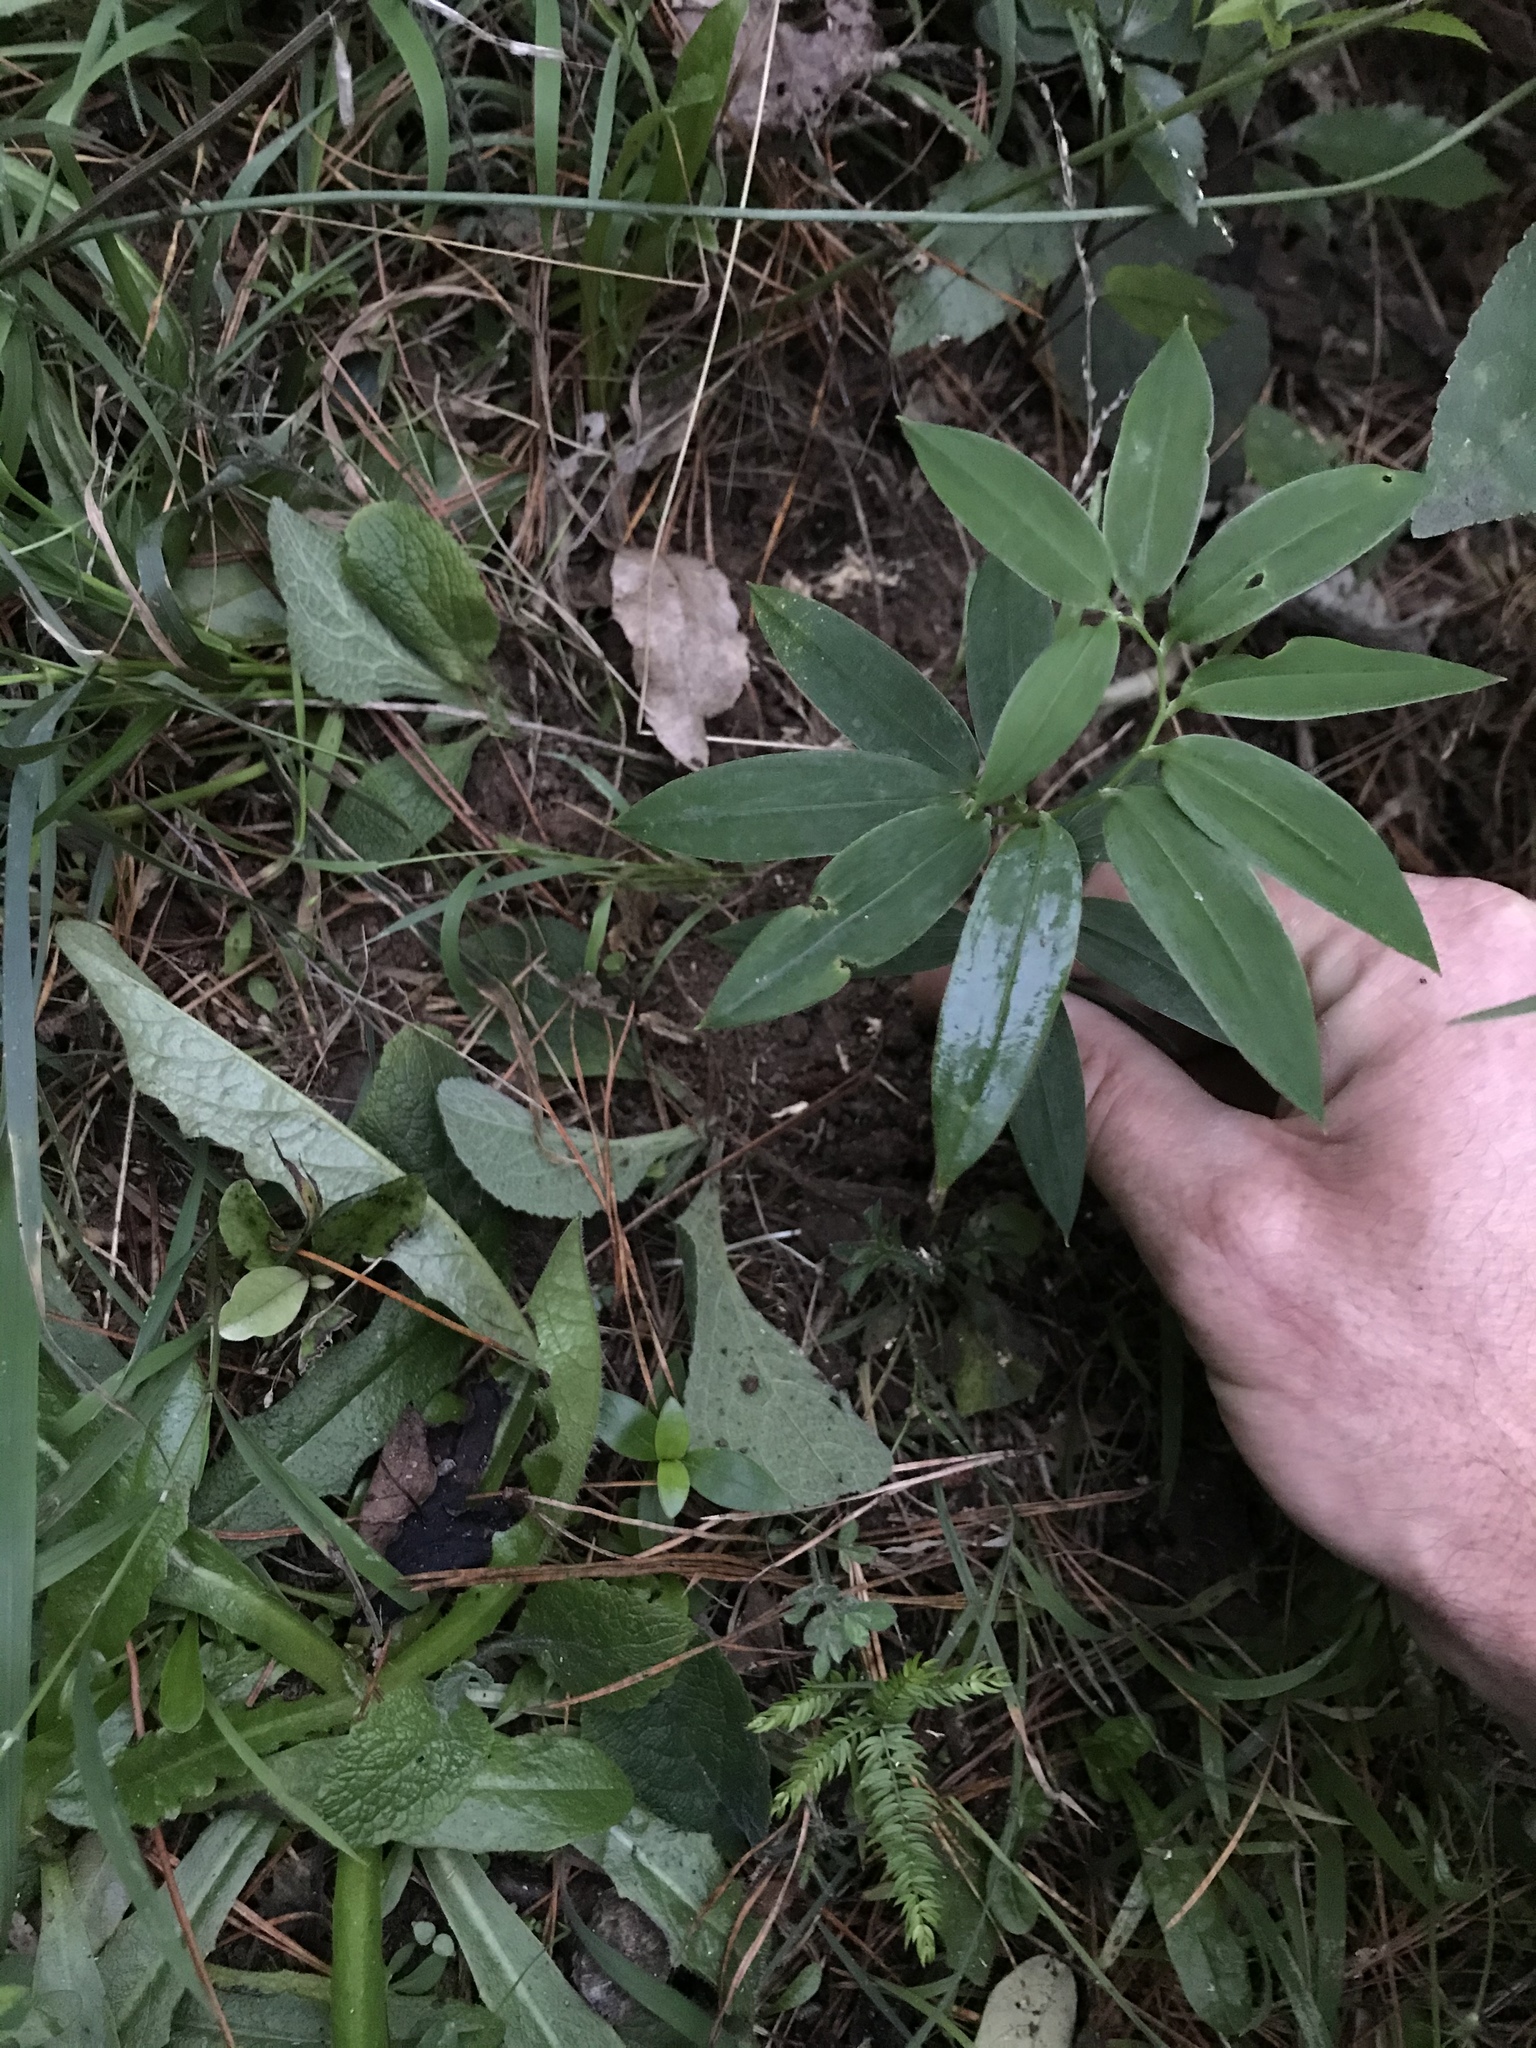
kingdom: Plantae
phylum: Tracheophyta
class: Liliopsida
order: Liliales
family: Alstroemeriaceae
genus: Bomarea
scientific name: Bomarea multiflora
